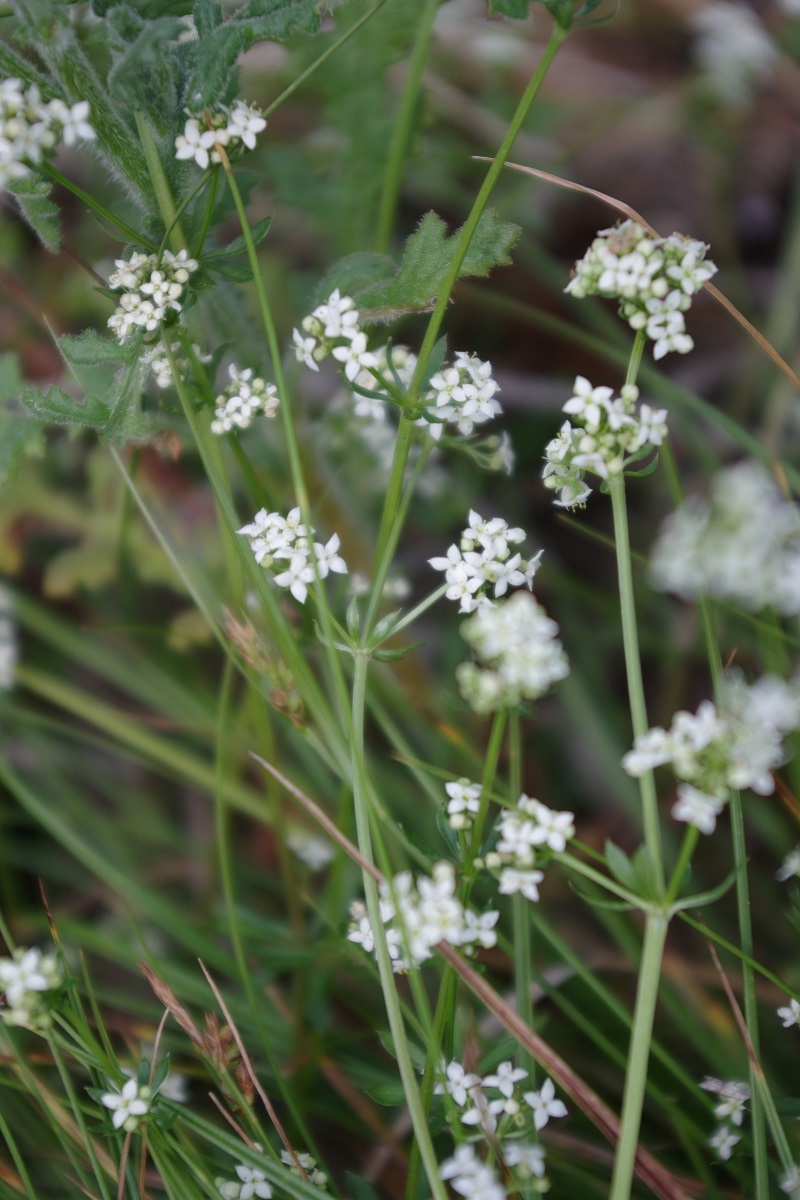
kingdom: Plantae
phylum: Tracheophyta
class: Magnoliopsida
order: Gentianales
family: Rubiaceae
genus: Galium
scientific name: Galium
